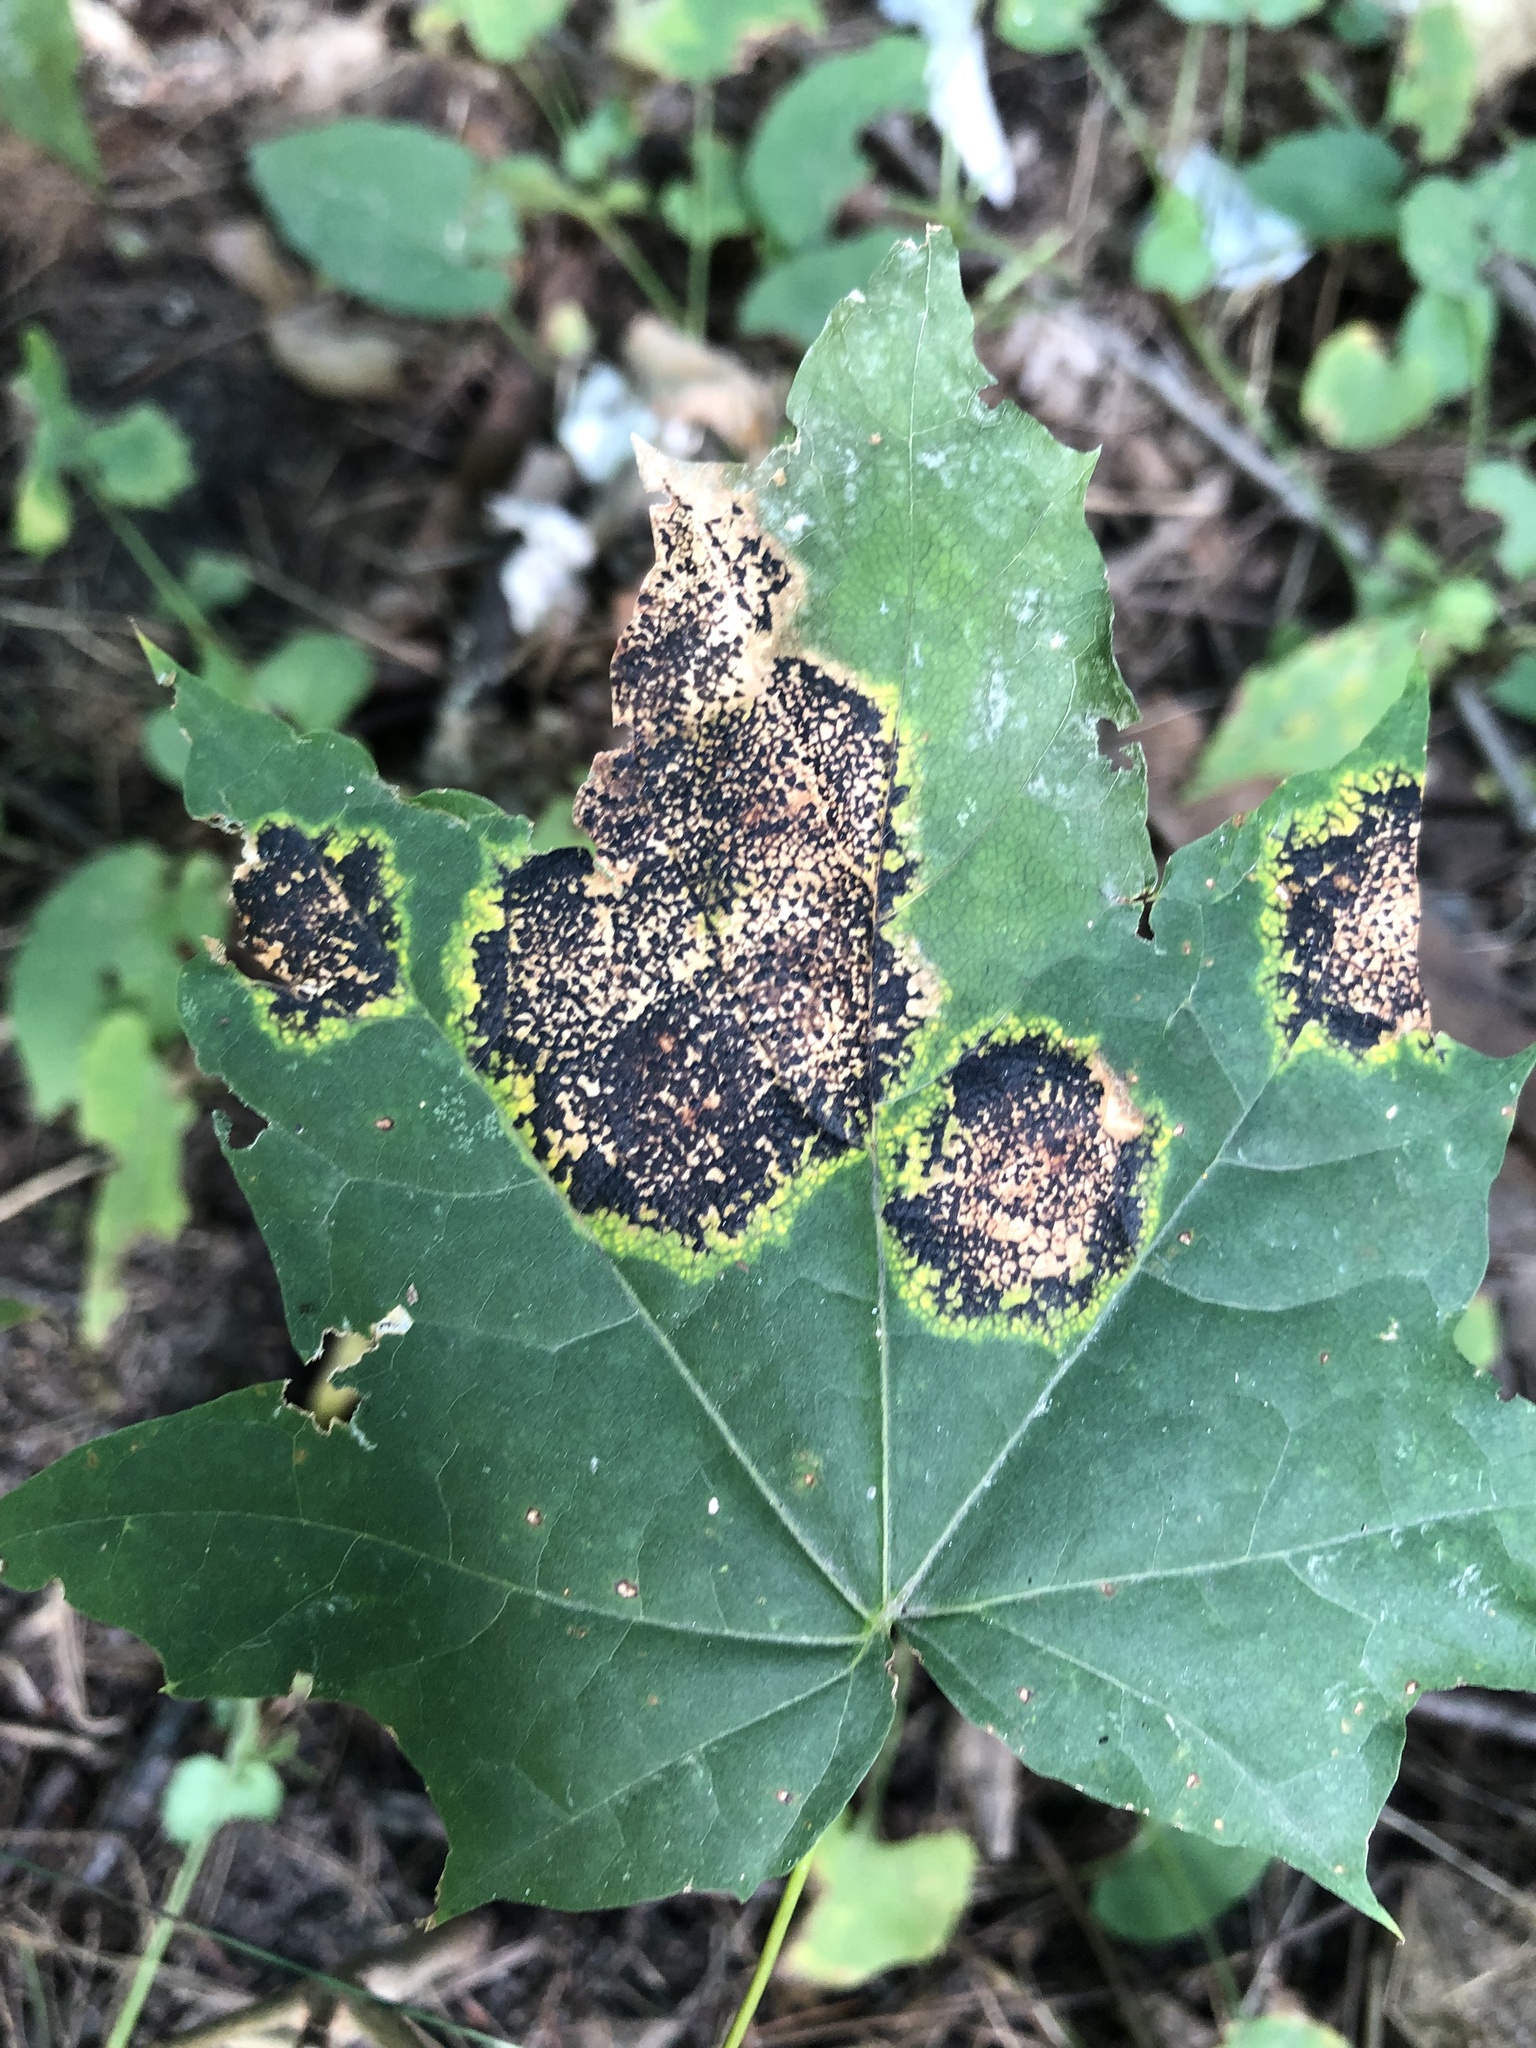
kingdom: Fungi
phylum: Ascomycota
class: Leotiomycetes
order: Rhytismatales
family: Rhytismataceae
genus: Rhytisma
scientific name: Rhytisma acerinum
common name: European tar spot
